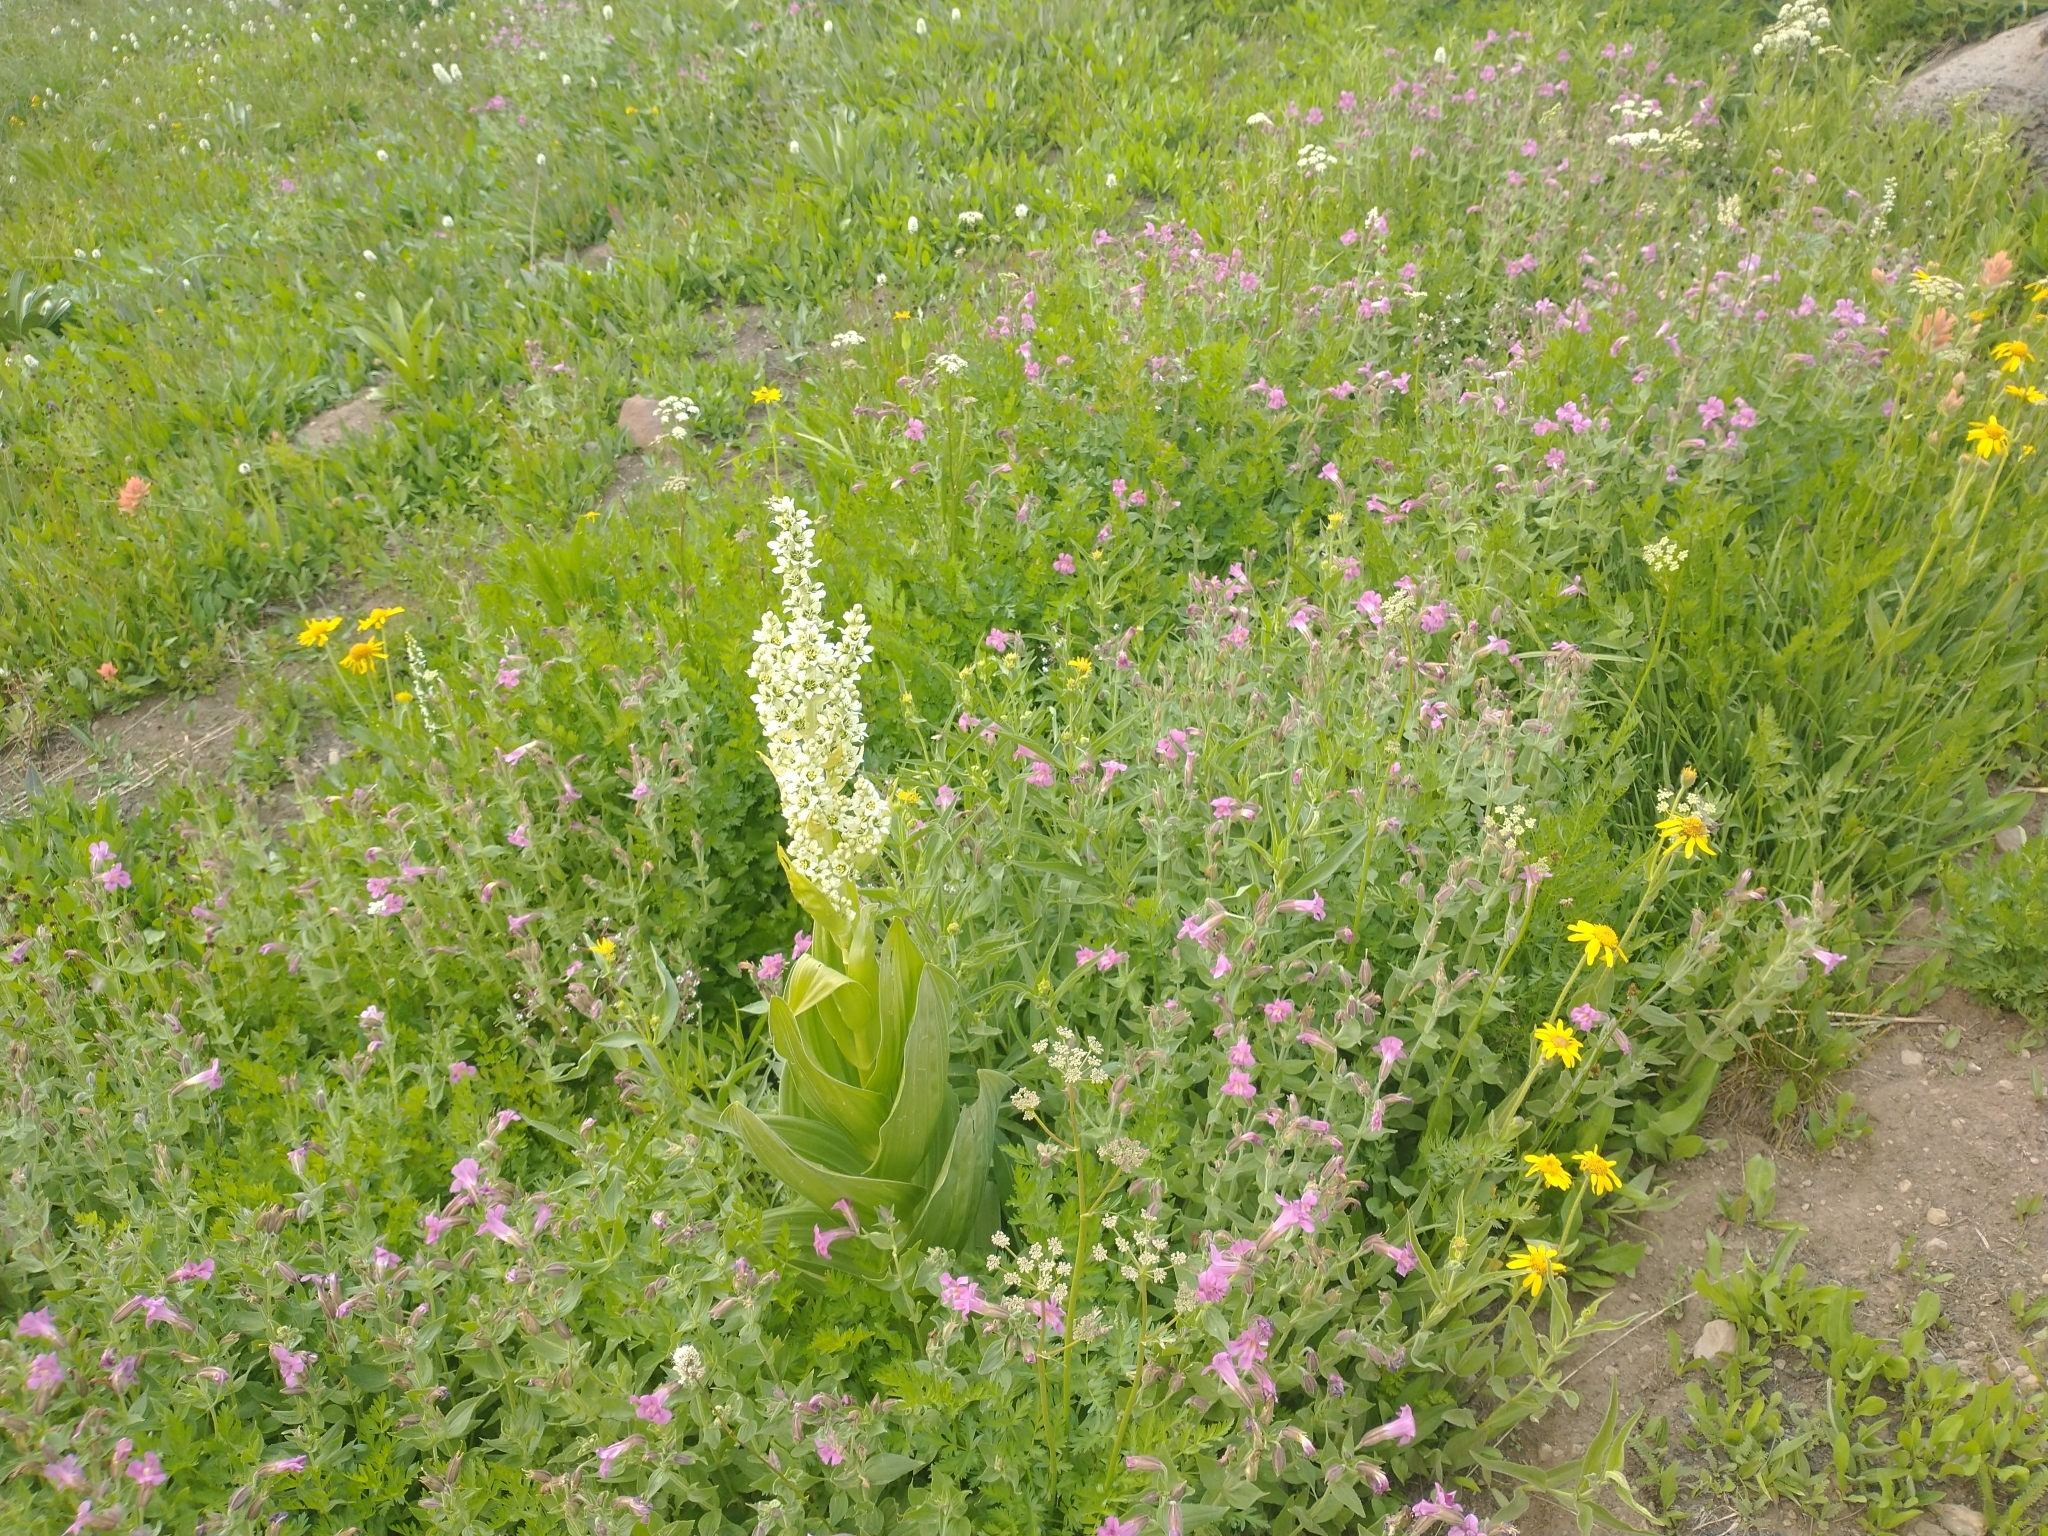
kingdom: Plantae
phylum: Tracheophyta
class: Liliopsida
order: Liliales
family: Melanthiaceae
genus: Veratrum
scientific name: Veratrum californicum
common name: California veratrum
